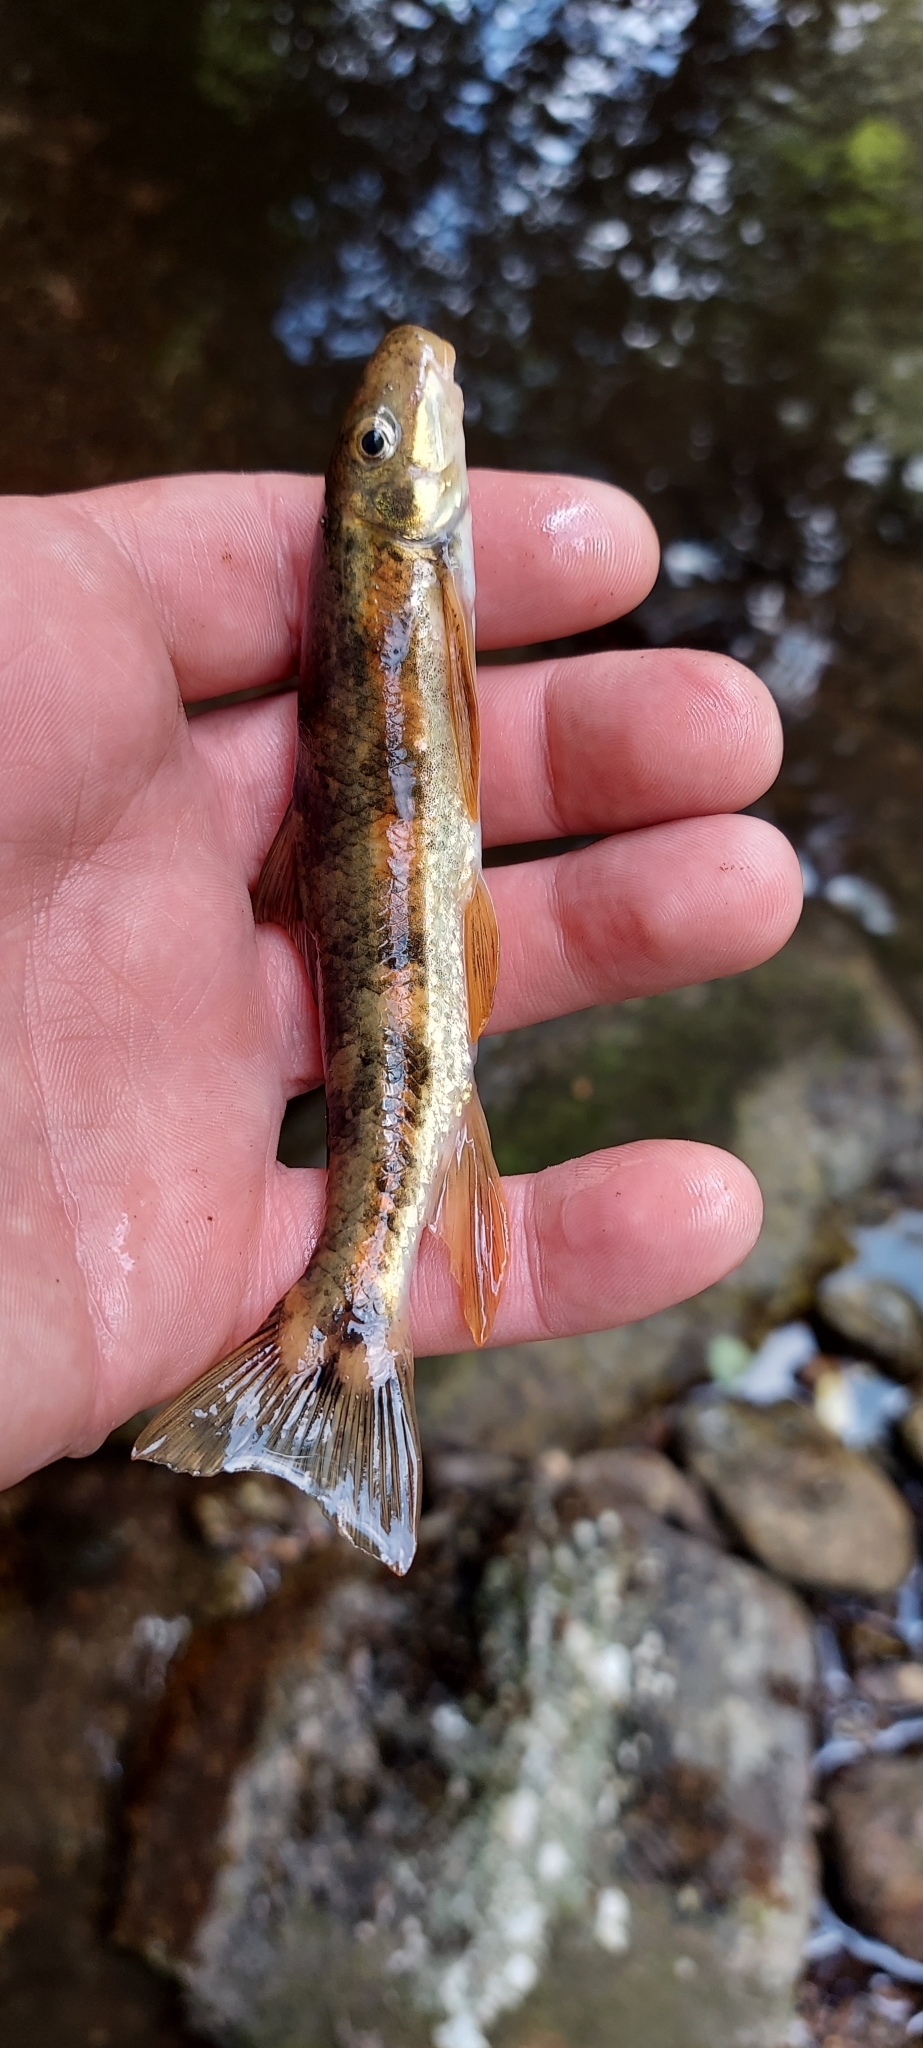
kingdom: Animalia
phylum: Chordata
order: Cypriniformes
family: Catostomidae
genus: Thoburnia
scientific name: Thoburnia rhothoeca
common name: Torrent sucker
